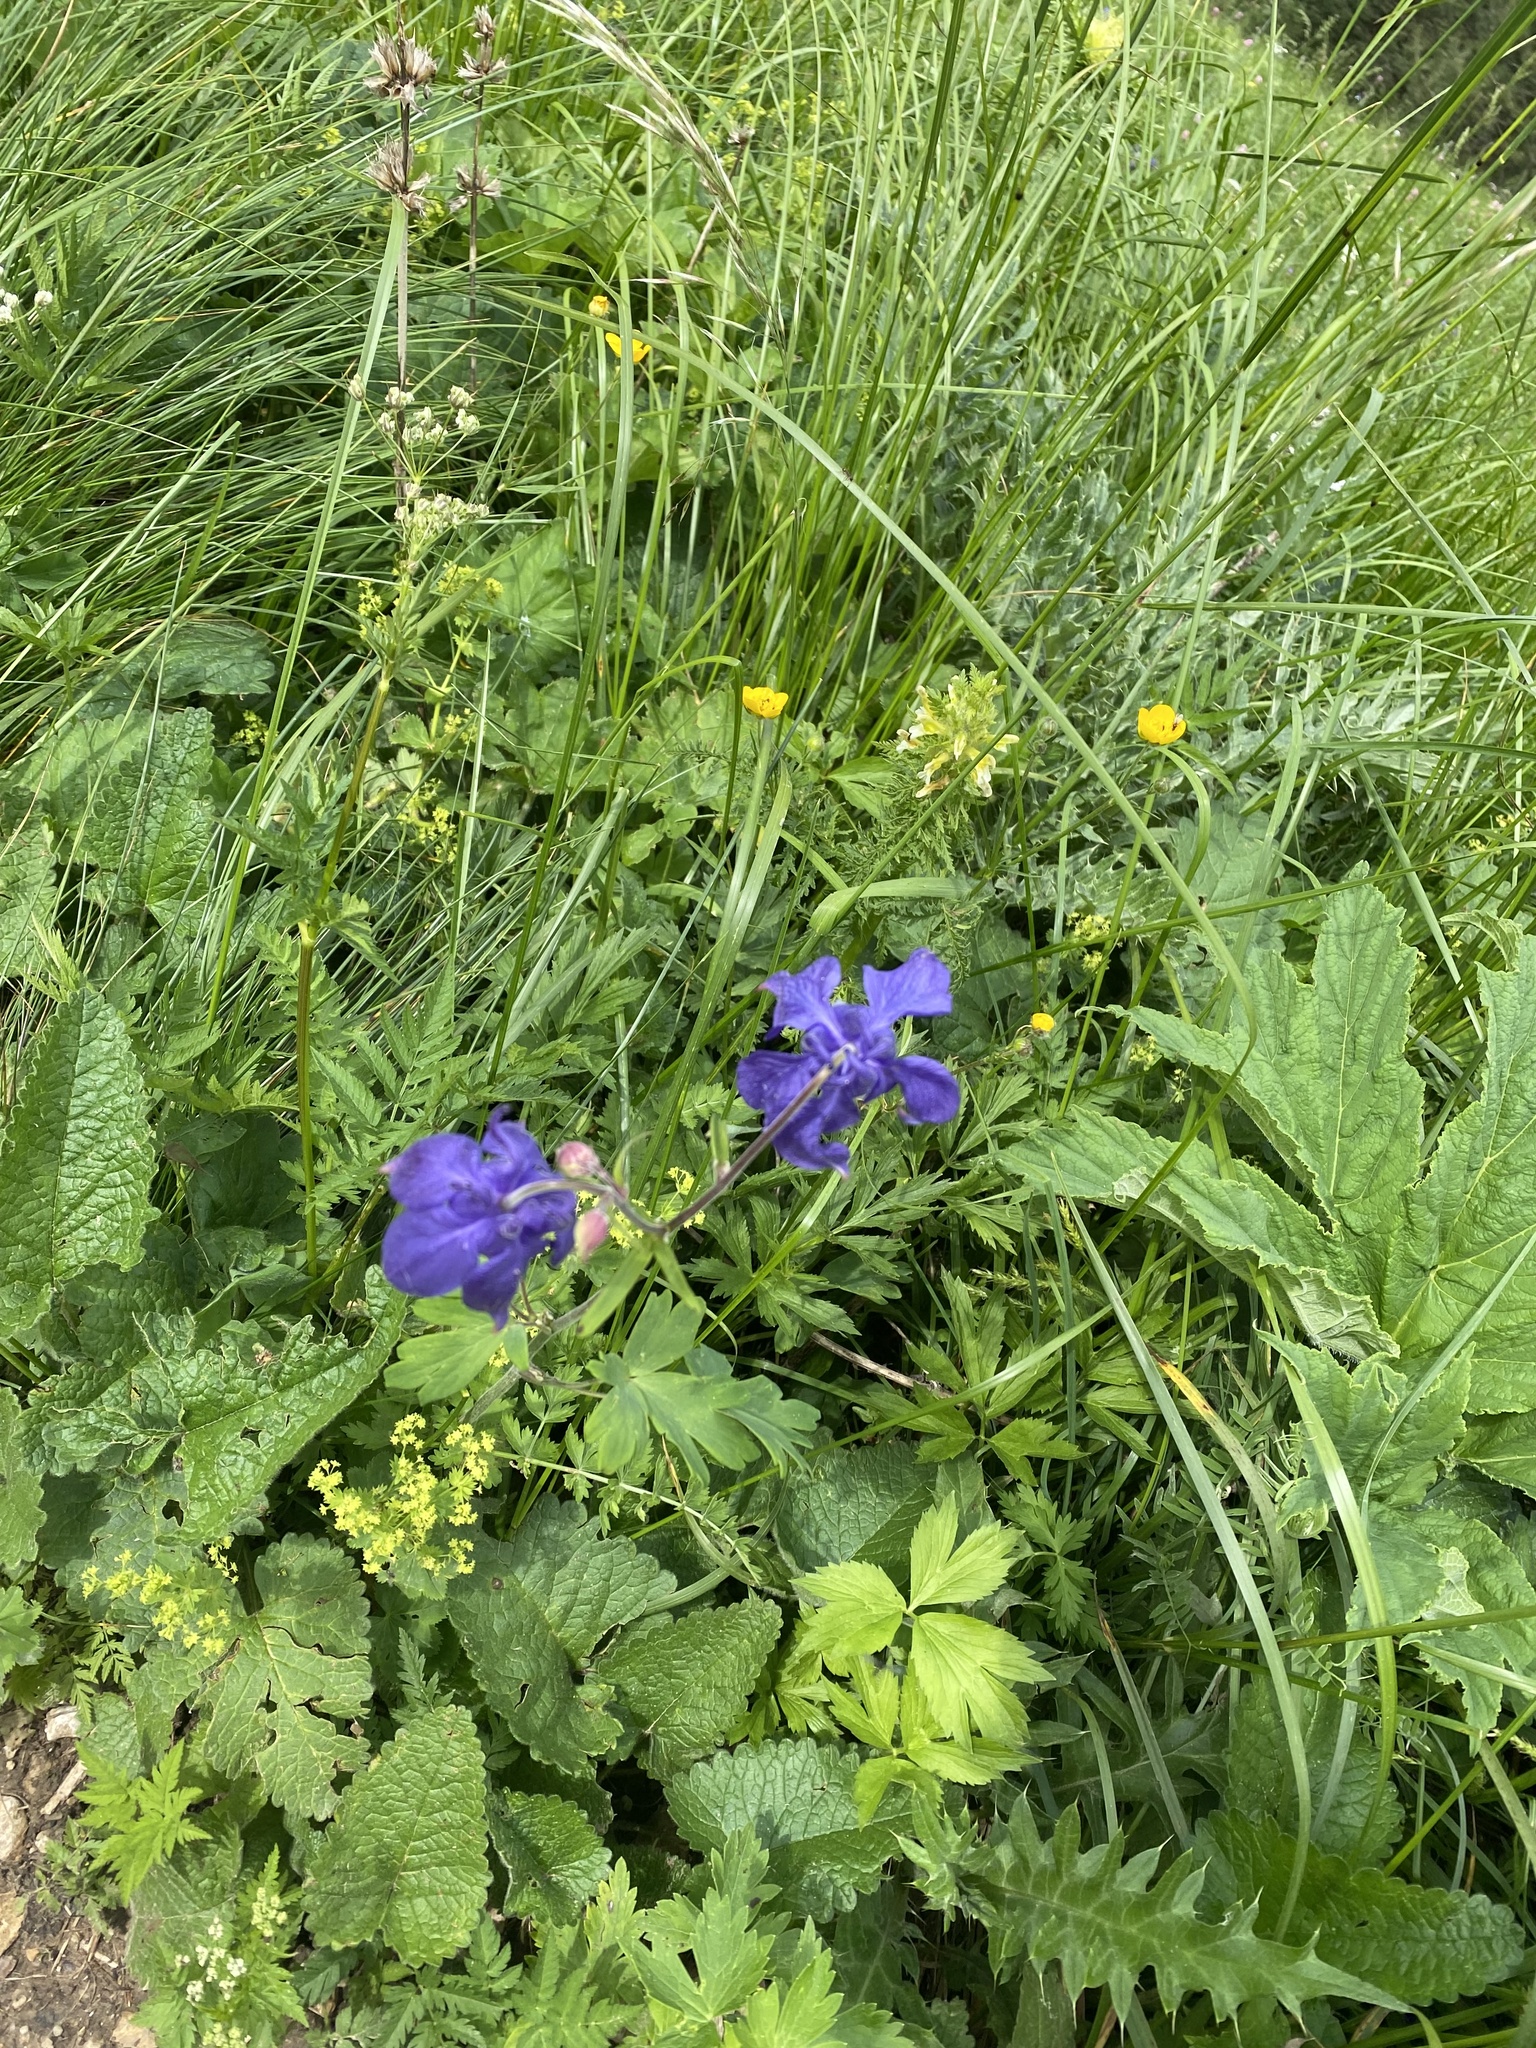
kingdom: Plantae
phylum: Tracheophyta
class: Magnoliopsida
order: Ranunculales
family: Ranunculaceae
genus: Aquilegia
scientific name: Aquilegia olympica
